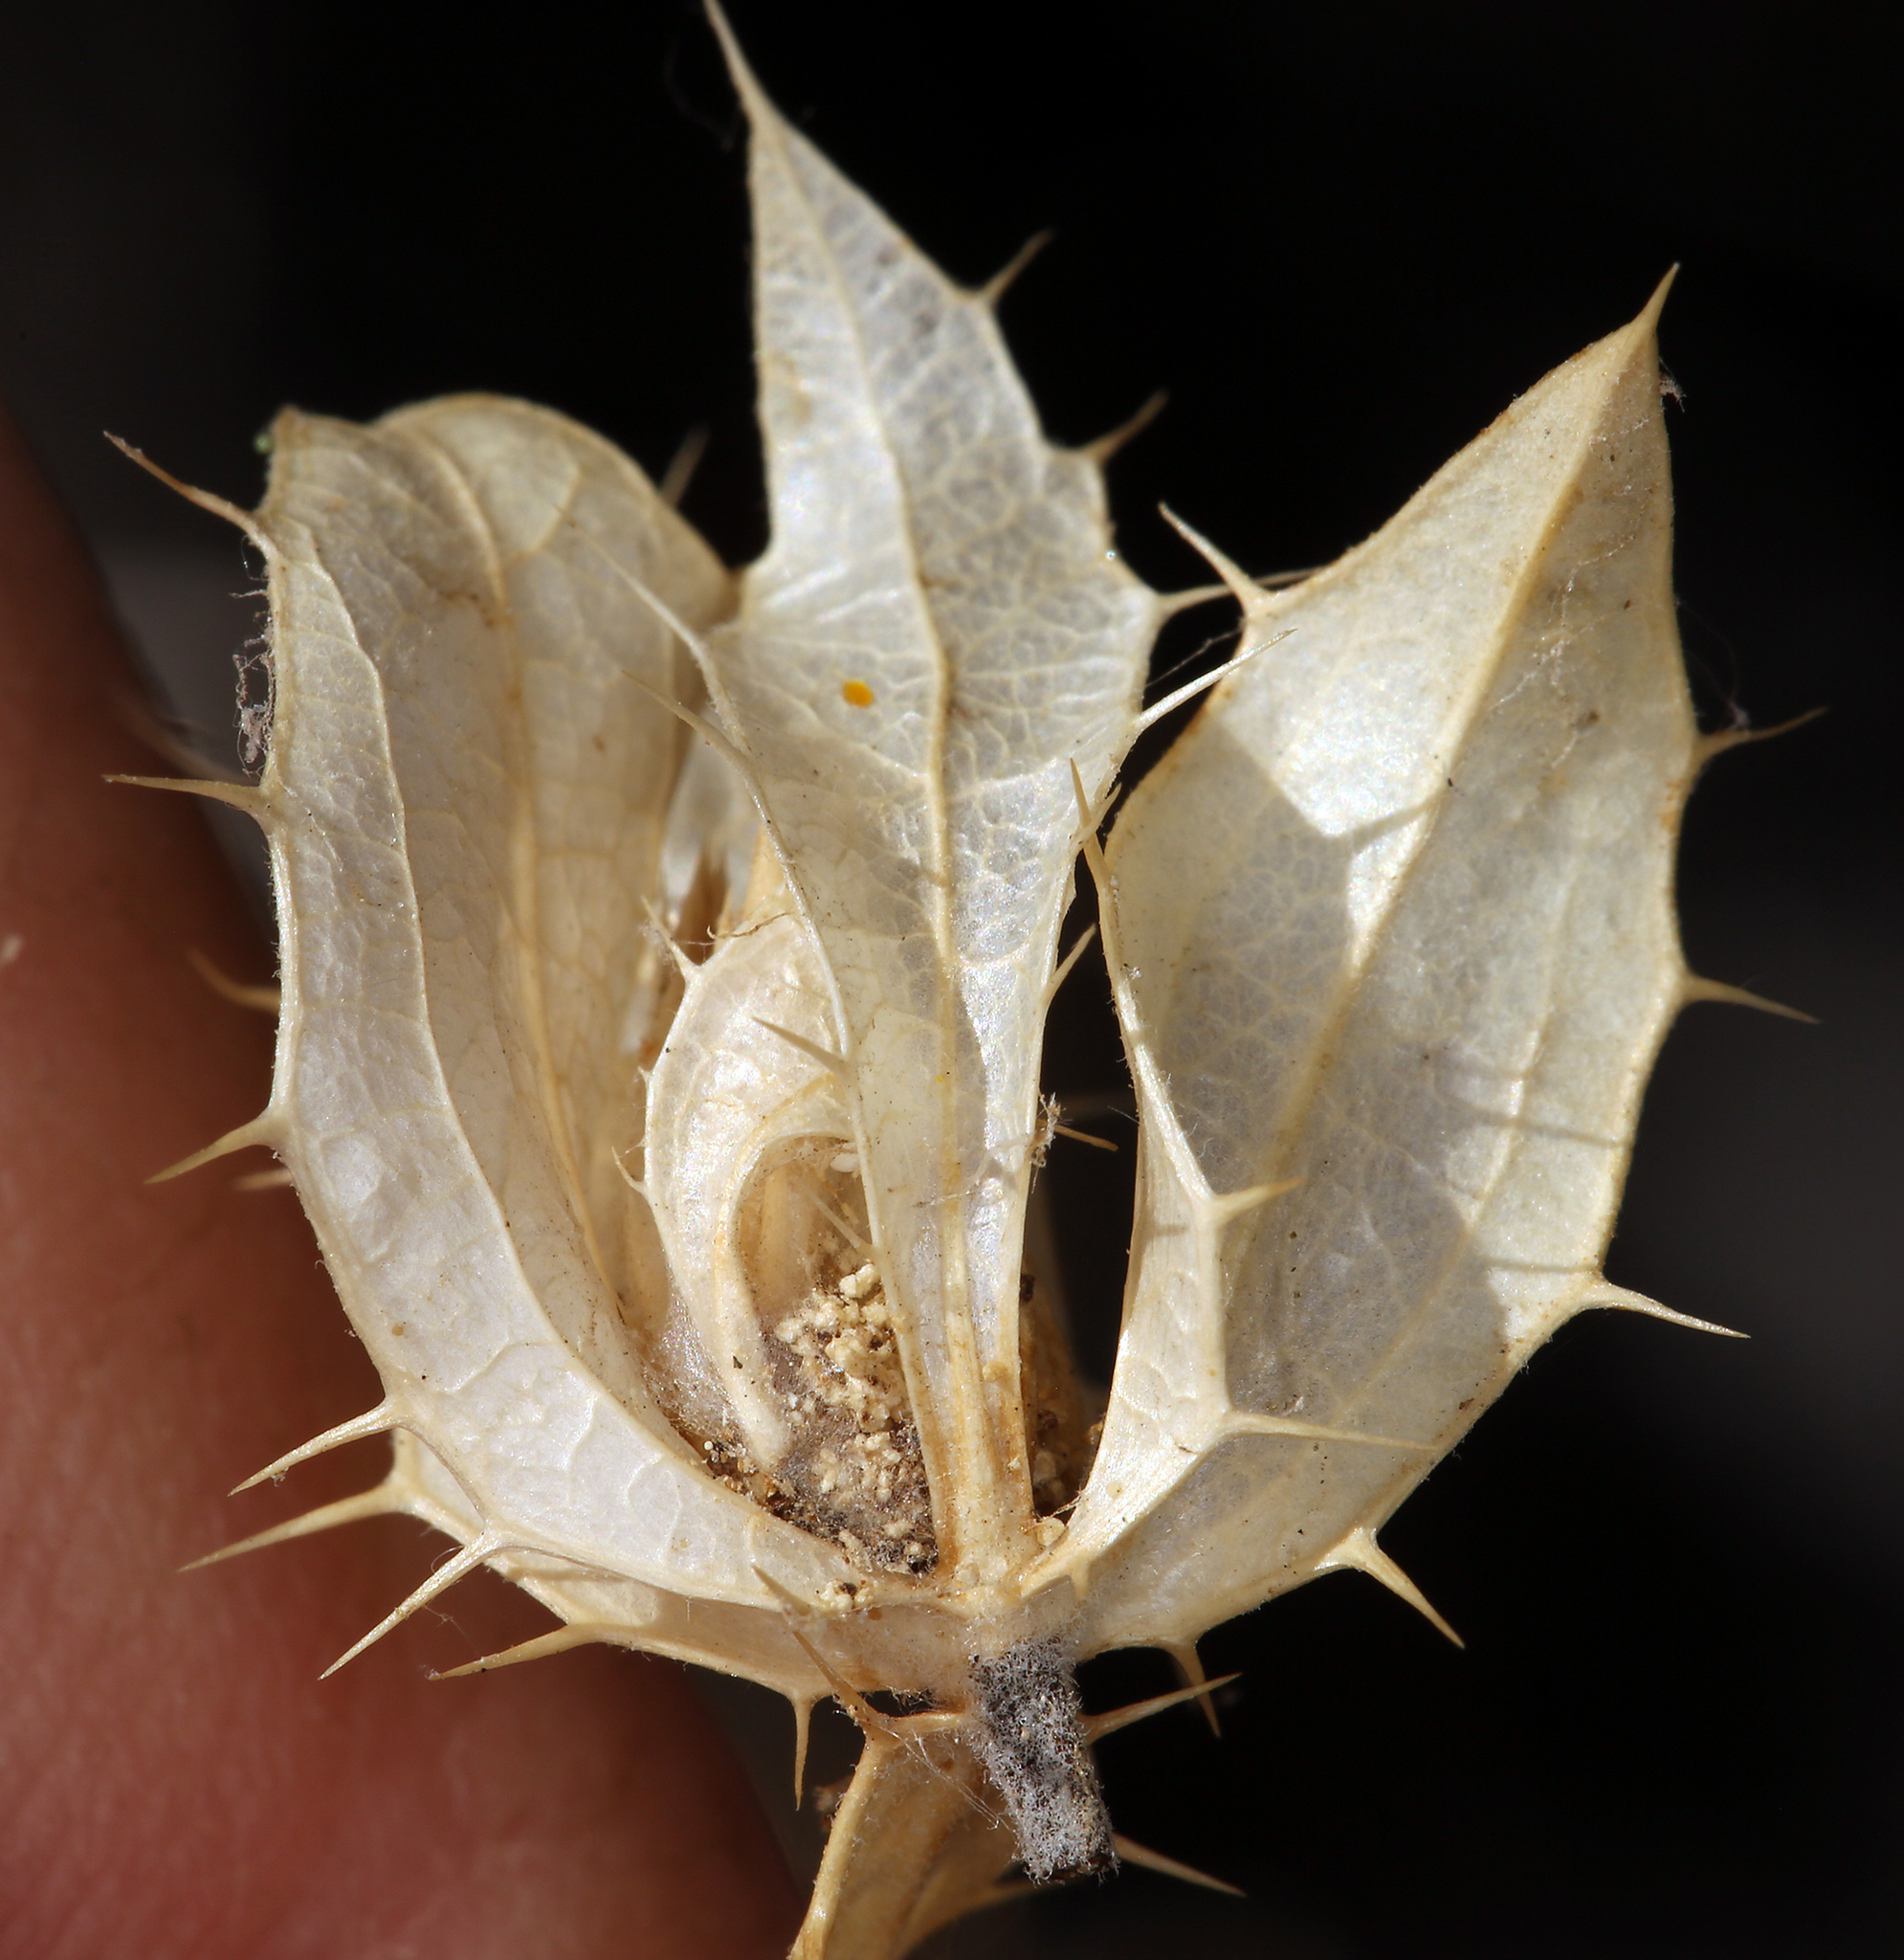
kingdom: Plantae
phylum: Tracheophyta
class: Magnoliopsida
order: Asterales
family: Asteraceae
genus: Hecastocleis
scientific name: Hecastocleis shockleyi
